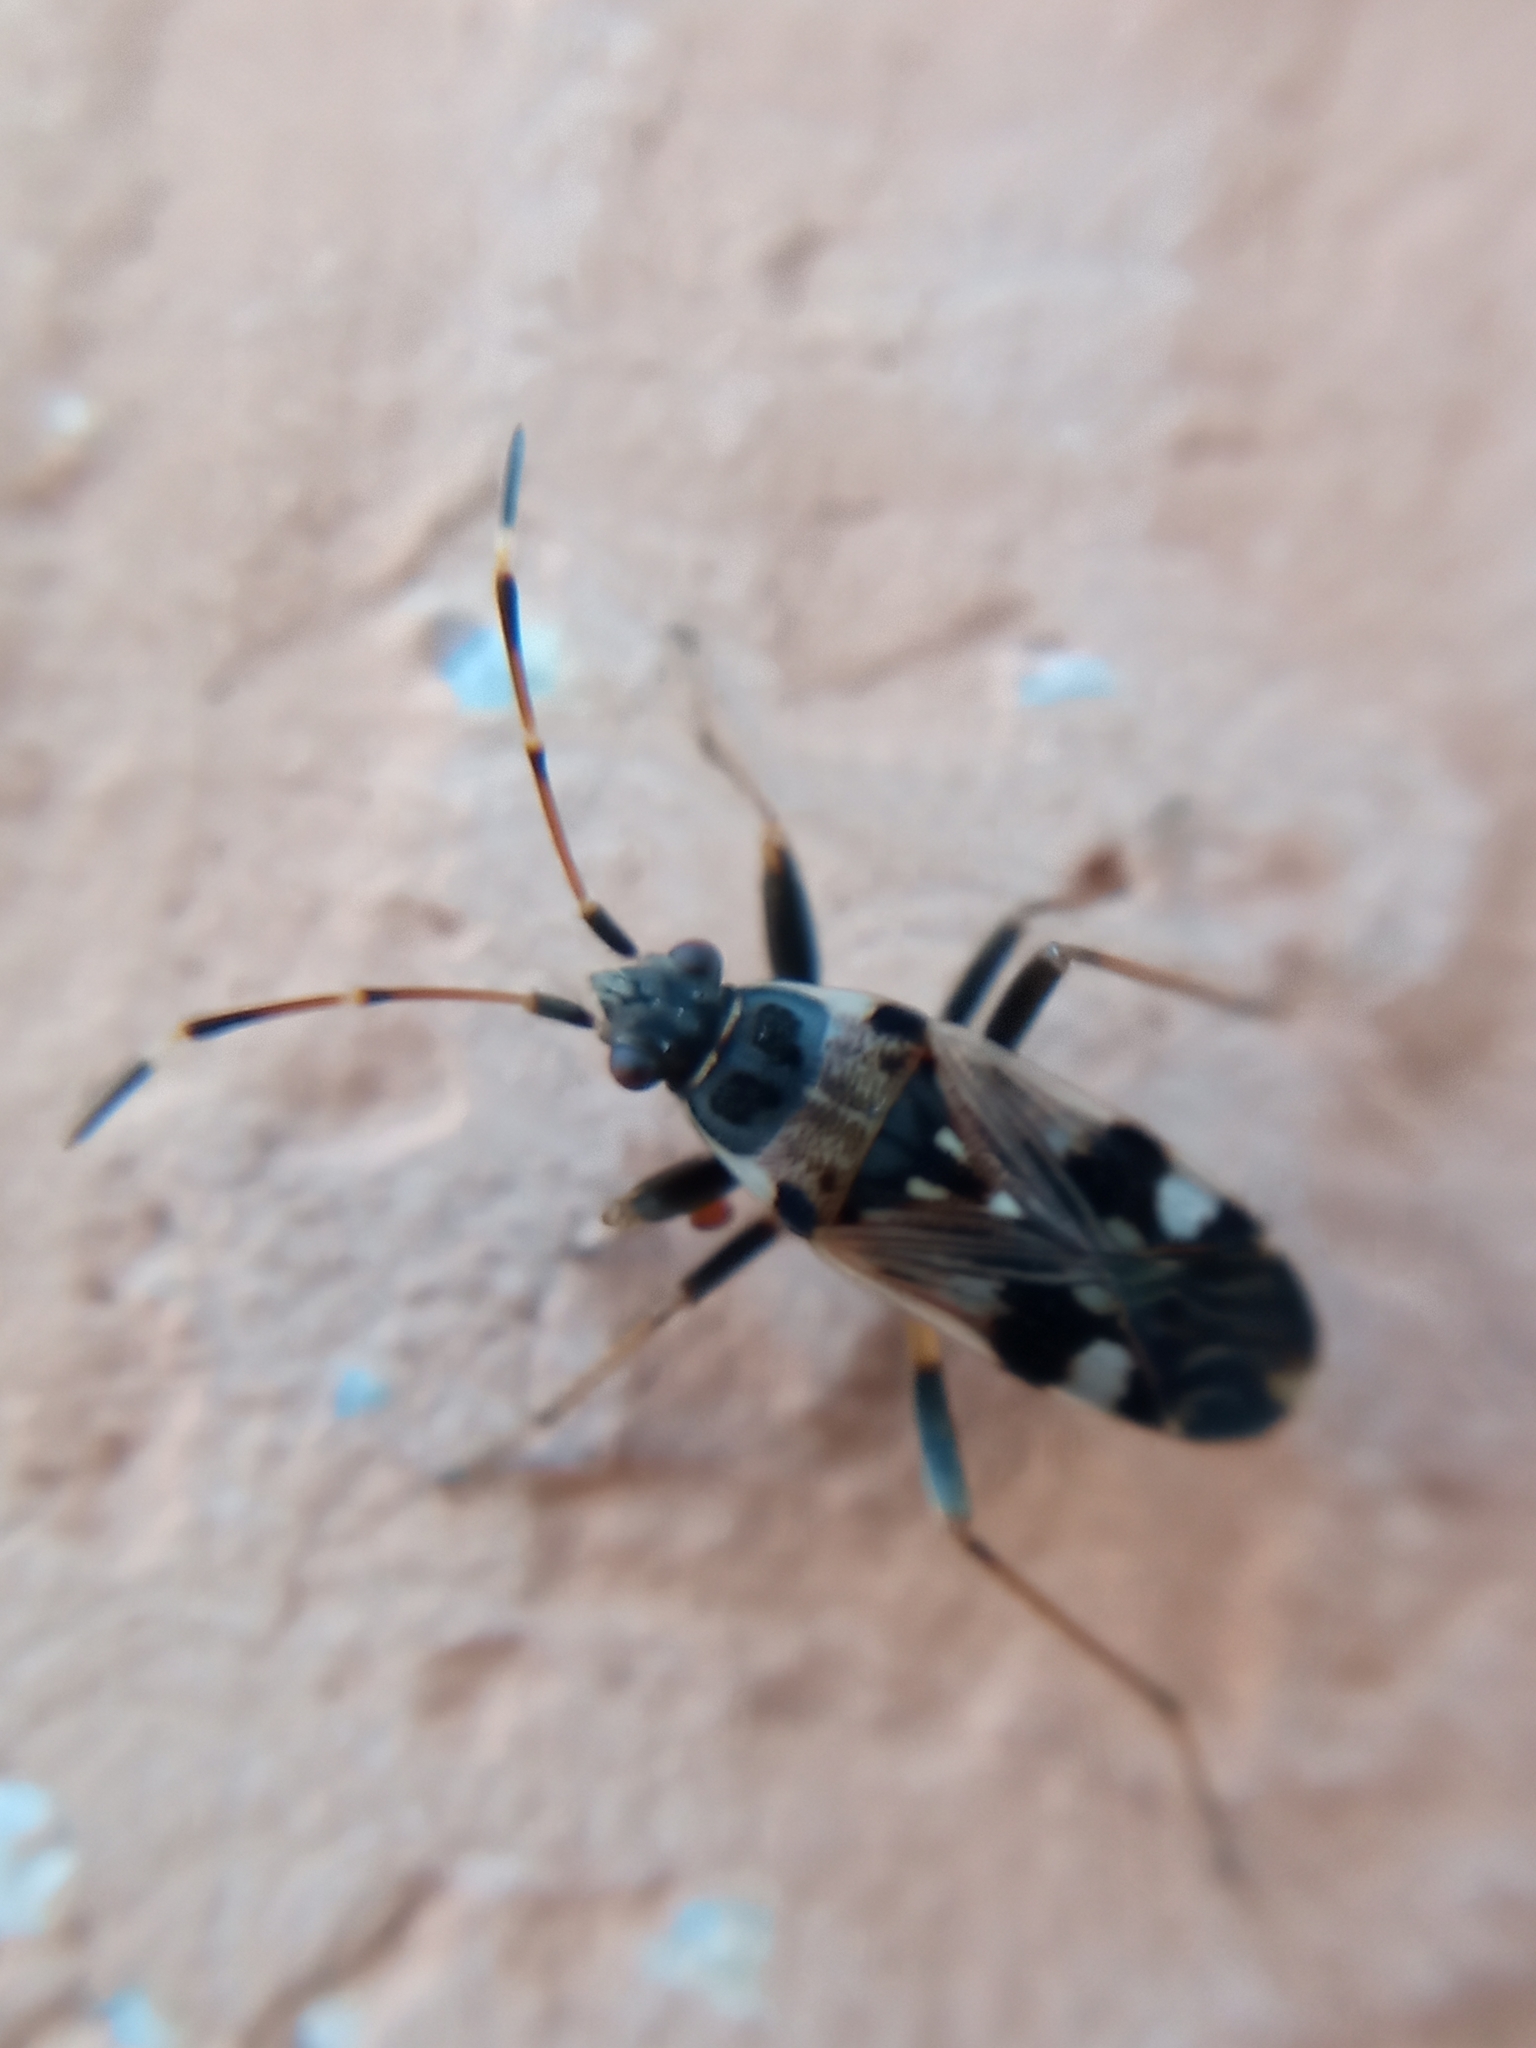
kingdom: Animalia
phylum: Arthropoda
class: Insecta
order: Hemiptera
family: Rhyparochromidae
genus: Beosus
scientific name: Beosus maritimus
